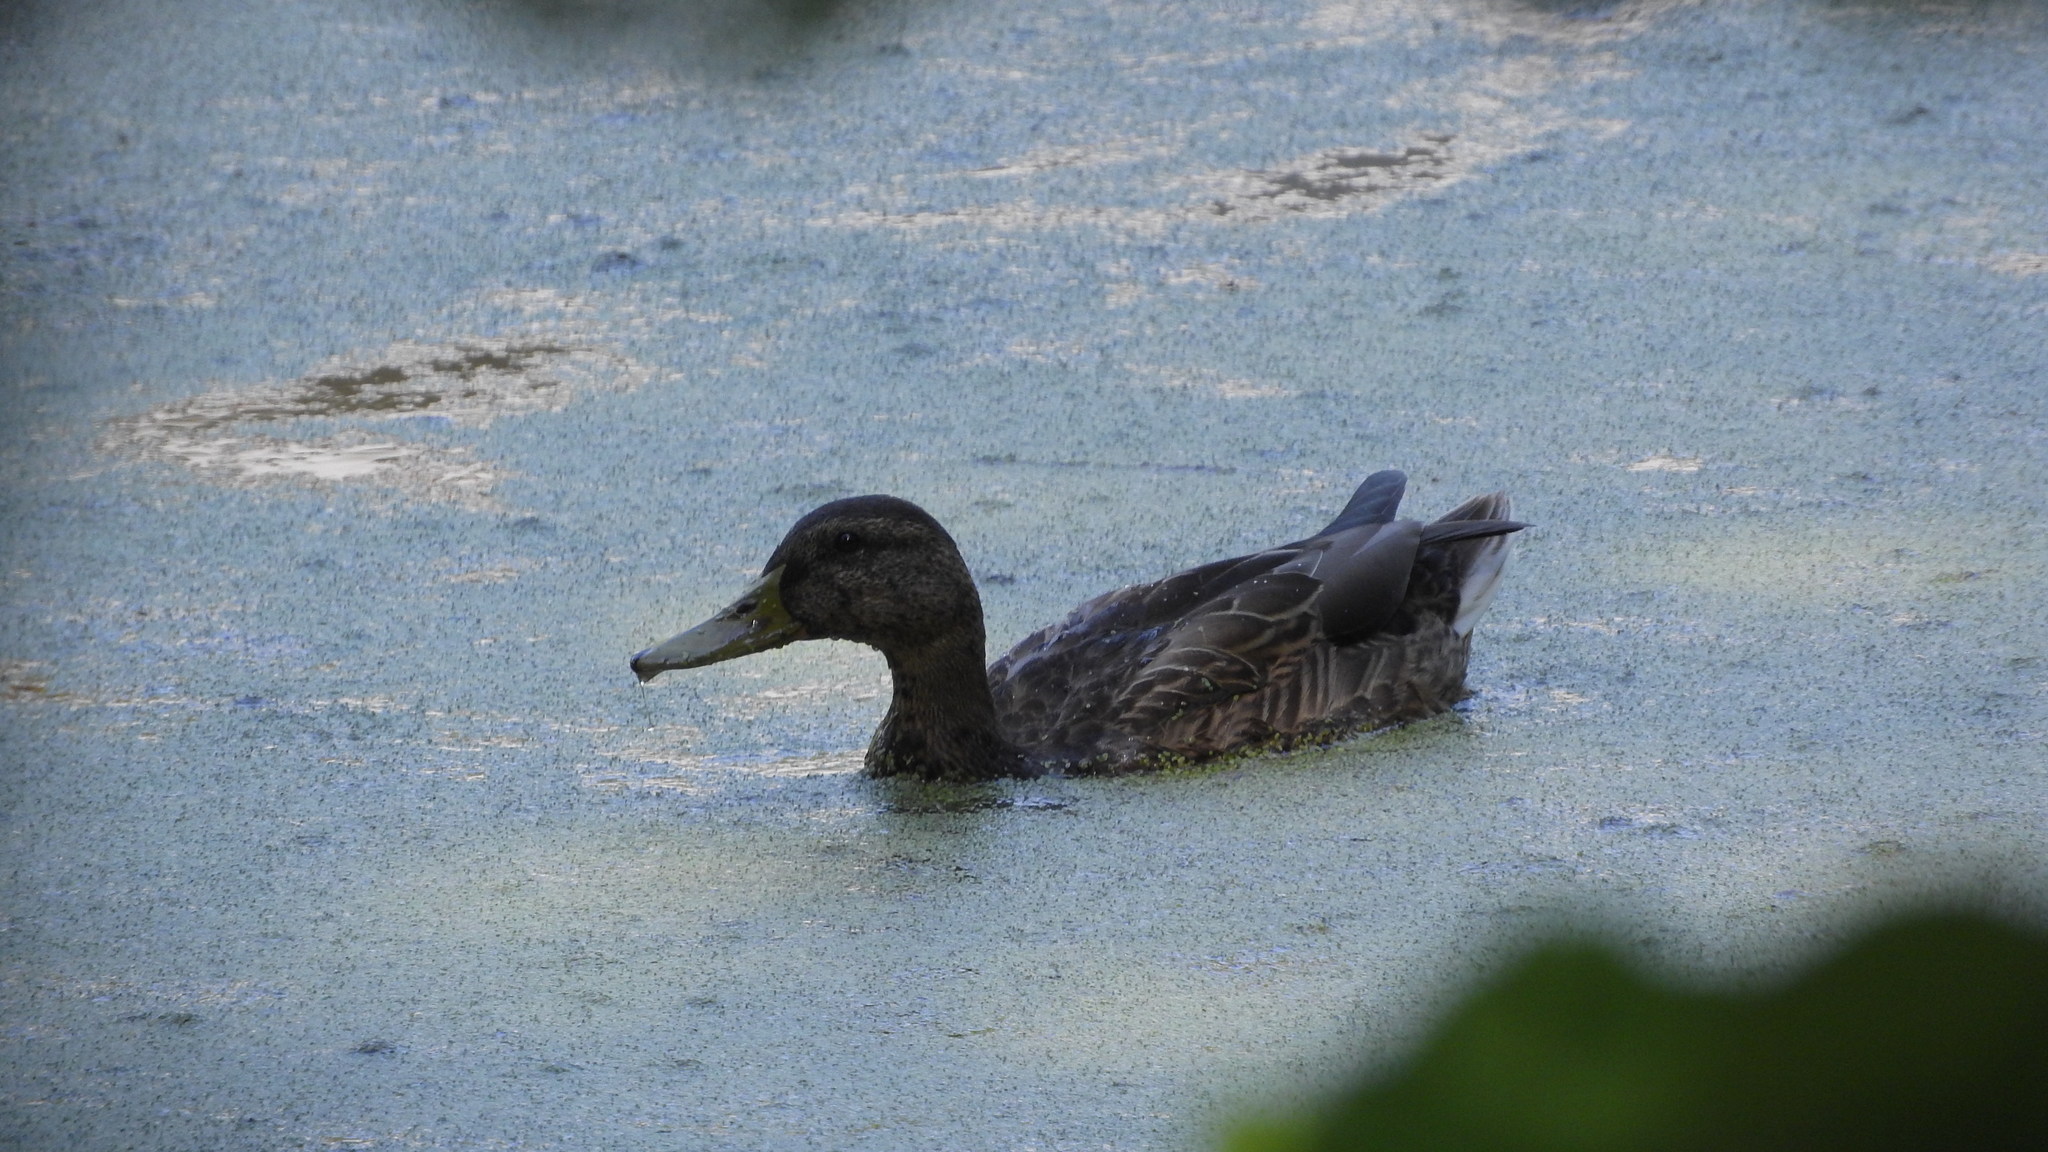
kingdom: Animalia
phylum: Chordata
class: Aves
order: Anseriformes
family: Anatidae
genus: Anas
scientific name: Anas platyrhynchos
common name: Mallard
